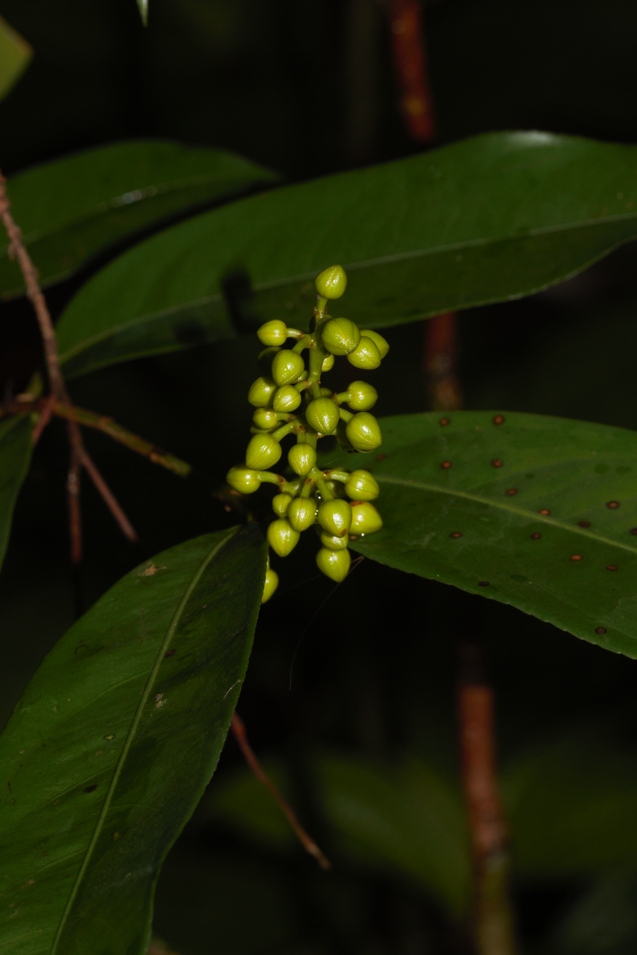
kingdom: Plantae
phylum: Tracheophyta
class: Magnoliopsida
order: Malpighiales
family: Ochnaceae
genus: Ouratea
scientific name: Ouratea
